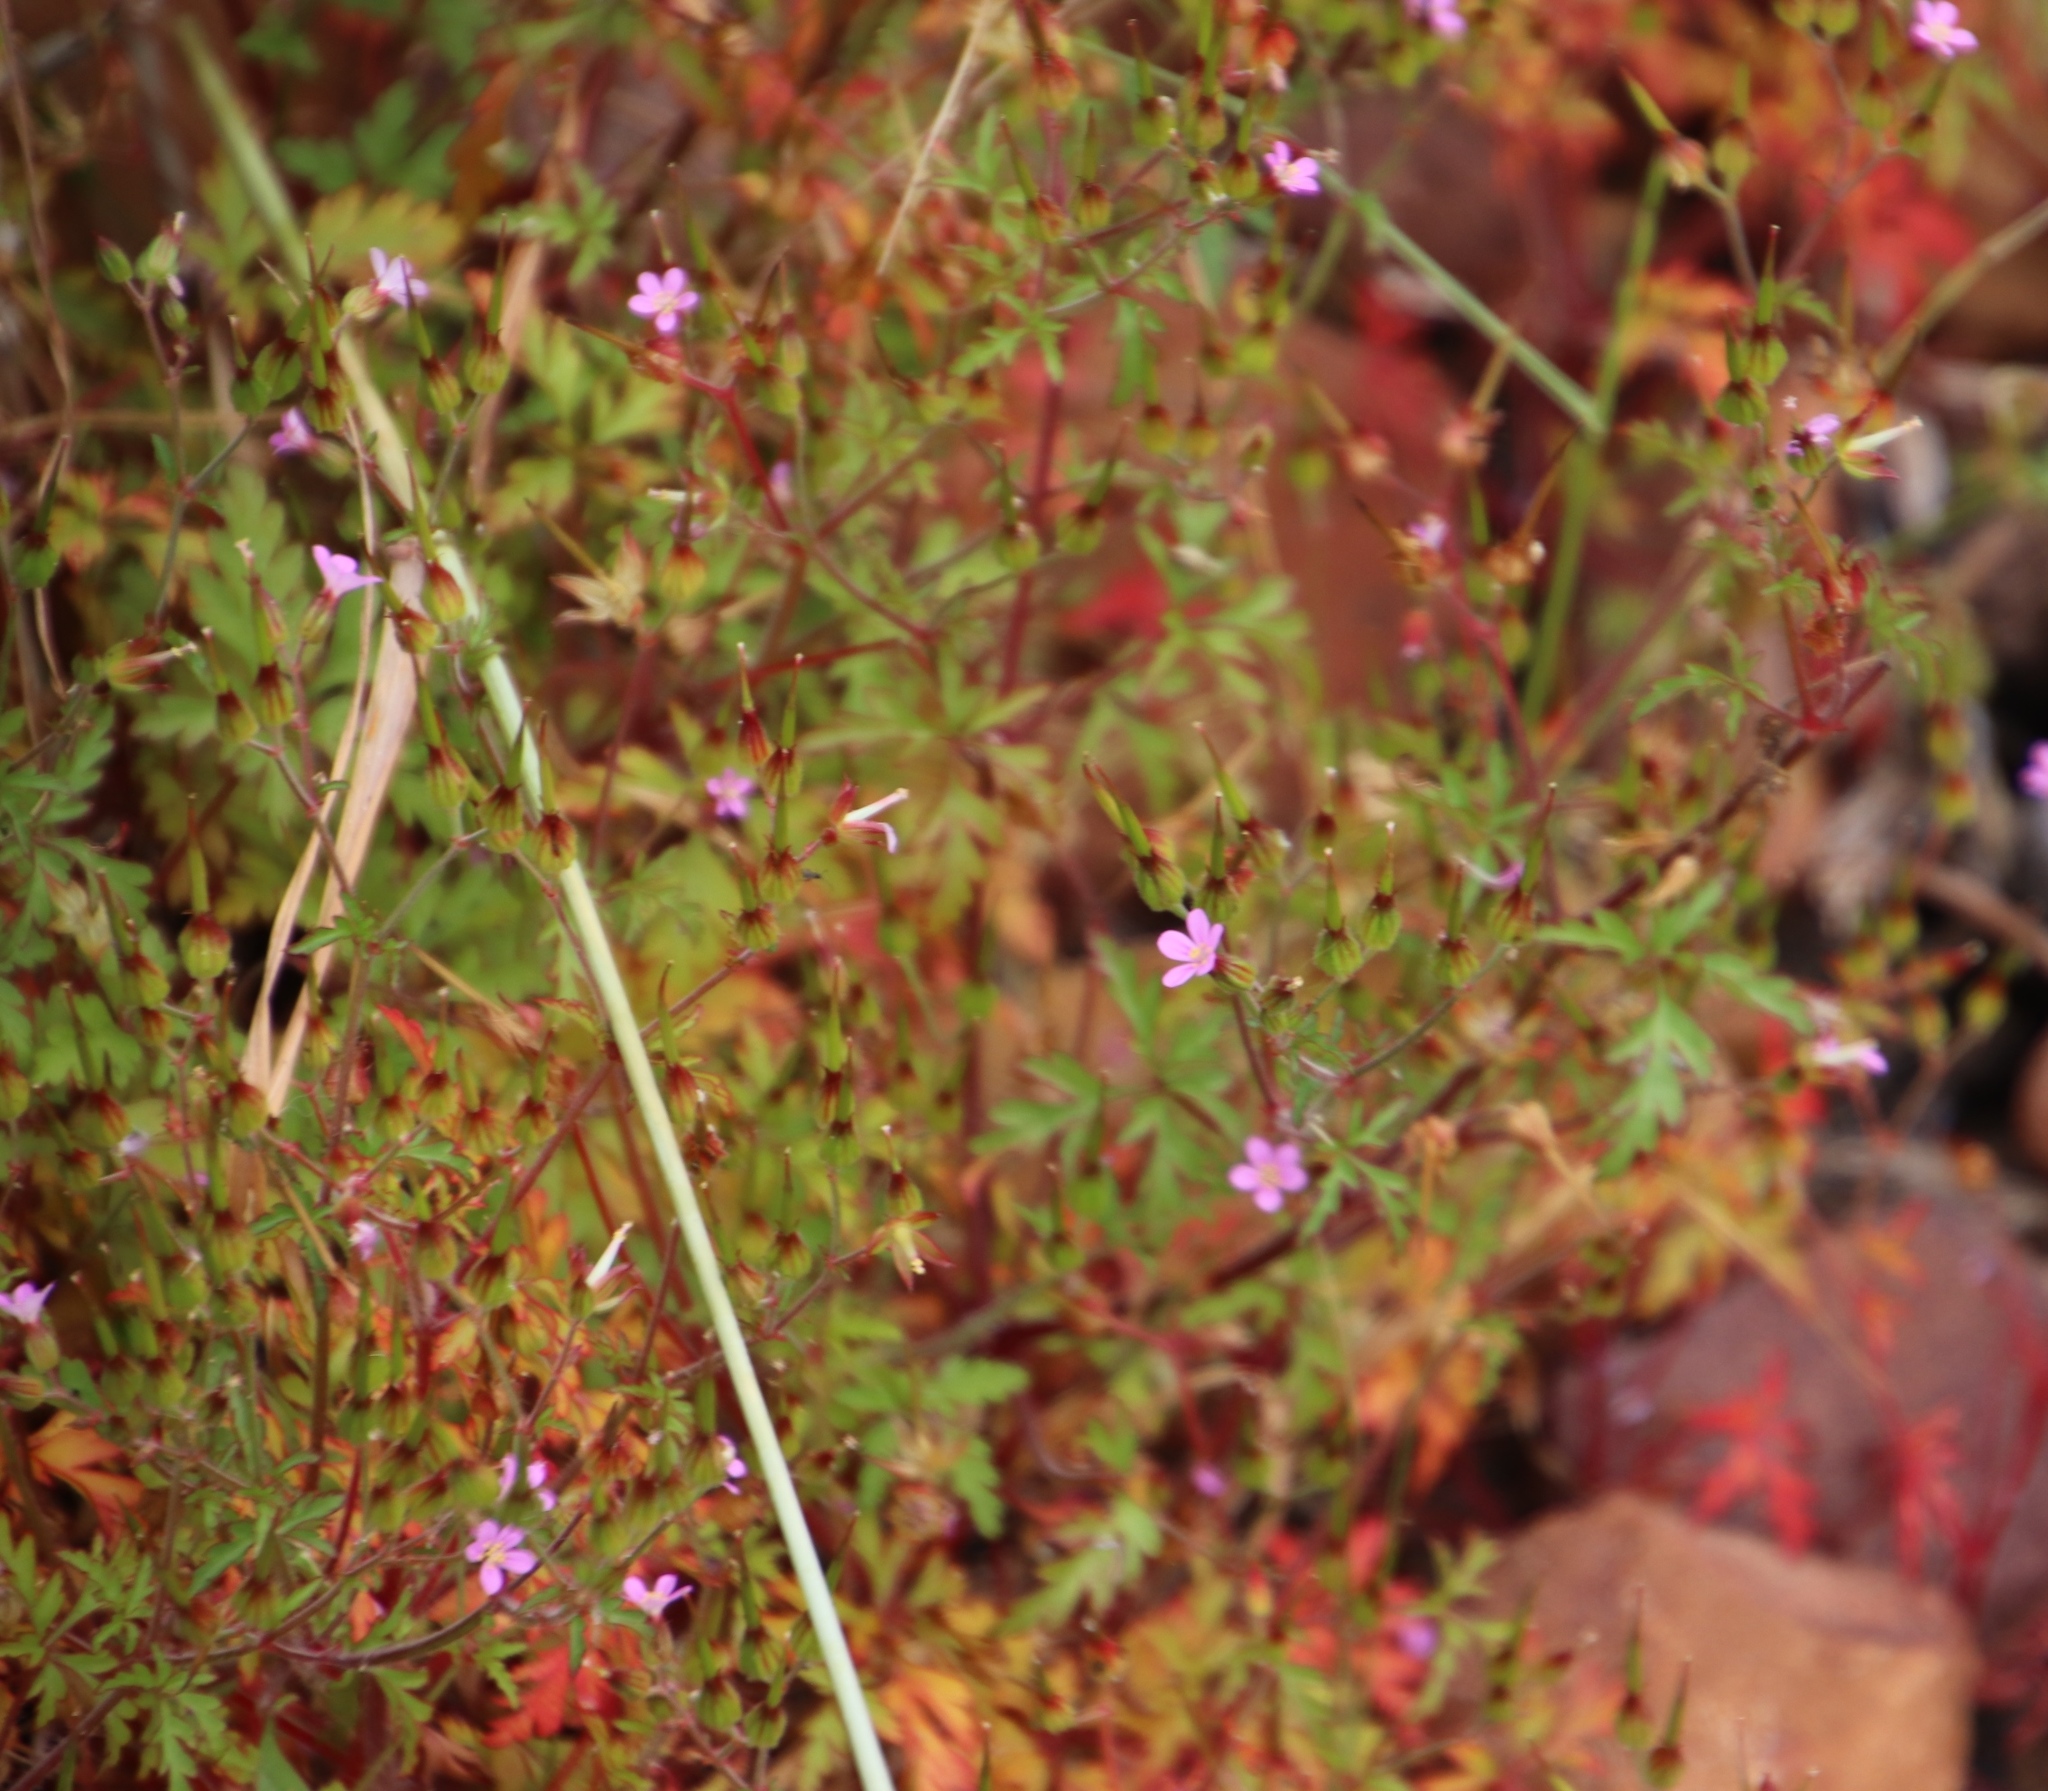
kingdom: Plantae
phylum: Tracheophyta
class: Magnoliopsida
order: Geraniales
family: Geraniaceae
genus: Geranium
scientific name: Geranium purpureum
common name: Little-robin
